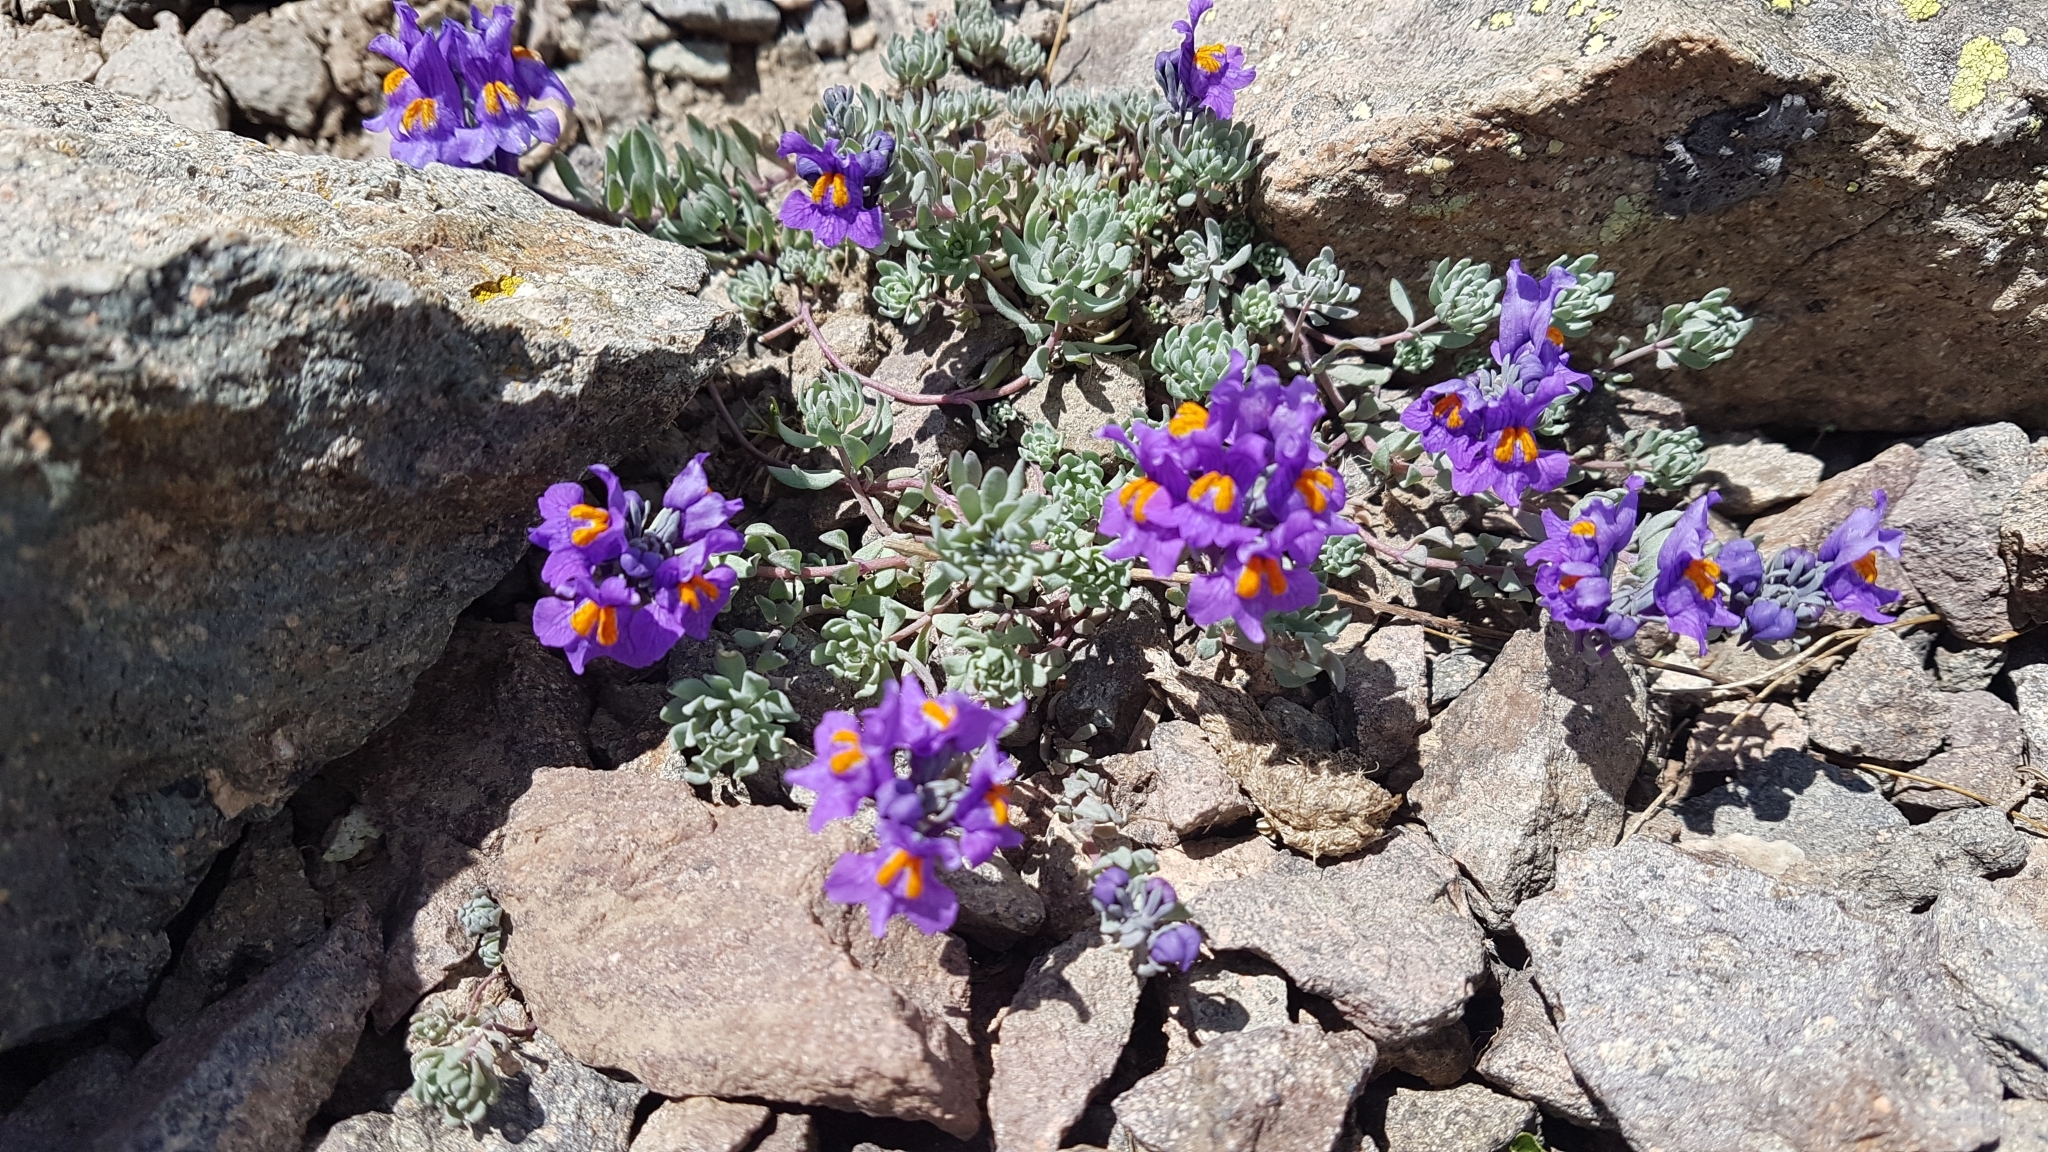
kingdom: Plantae
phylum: Tracheophyta
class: Magnoliopsida
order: Lamiales
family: Plantaginaceae
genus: Linaria
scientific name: Linaria alpina
